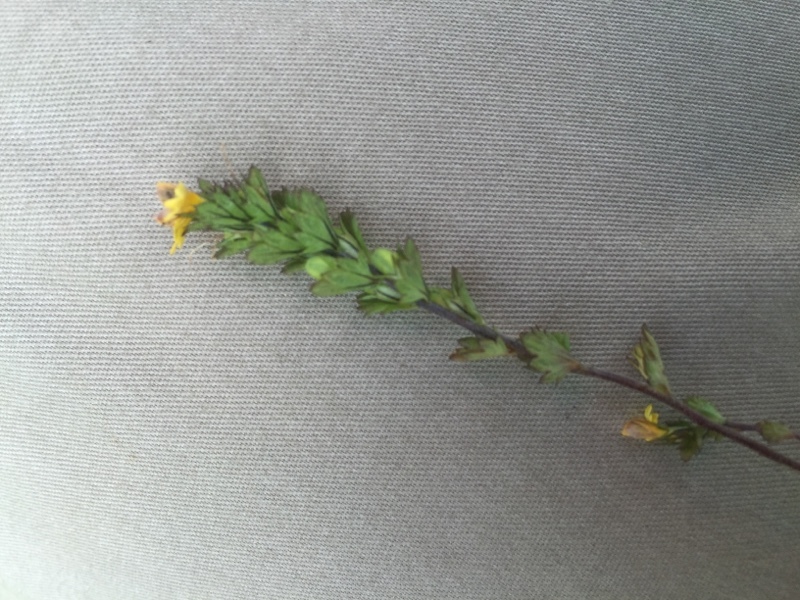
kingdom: Plantae
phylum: Tracheophyta
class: Magnoliopsida
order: Lamiales
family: Orobanchaceae
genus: Euphrasia
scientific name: Euphrasia minima
